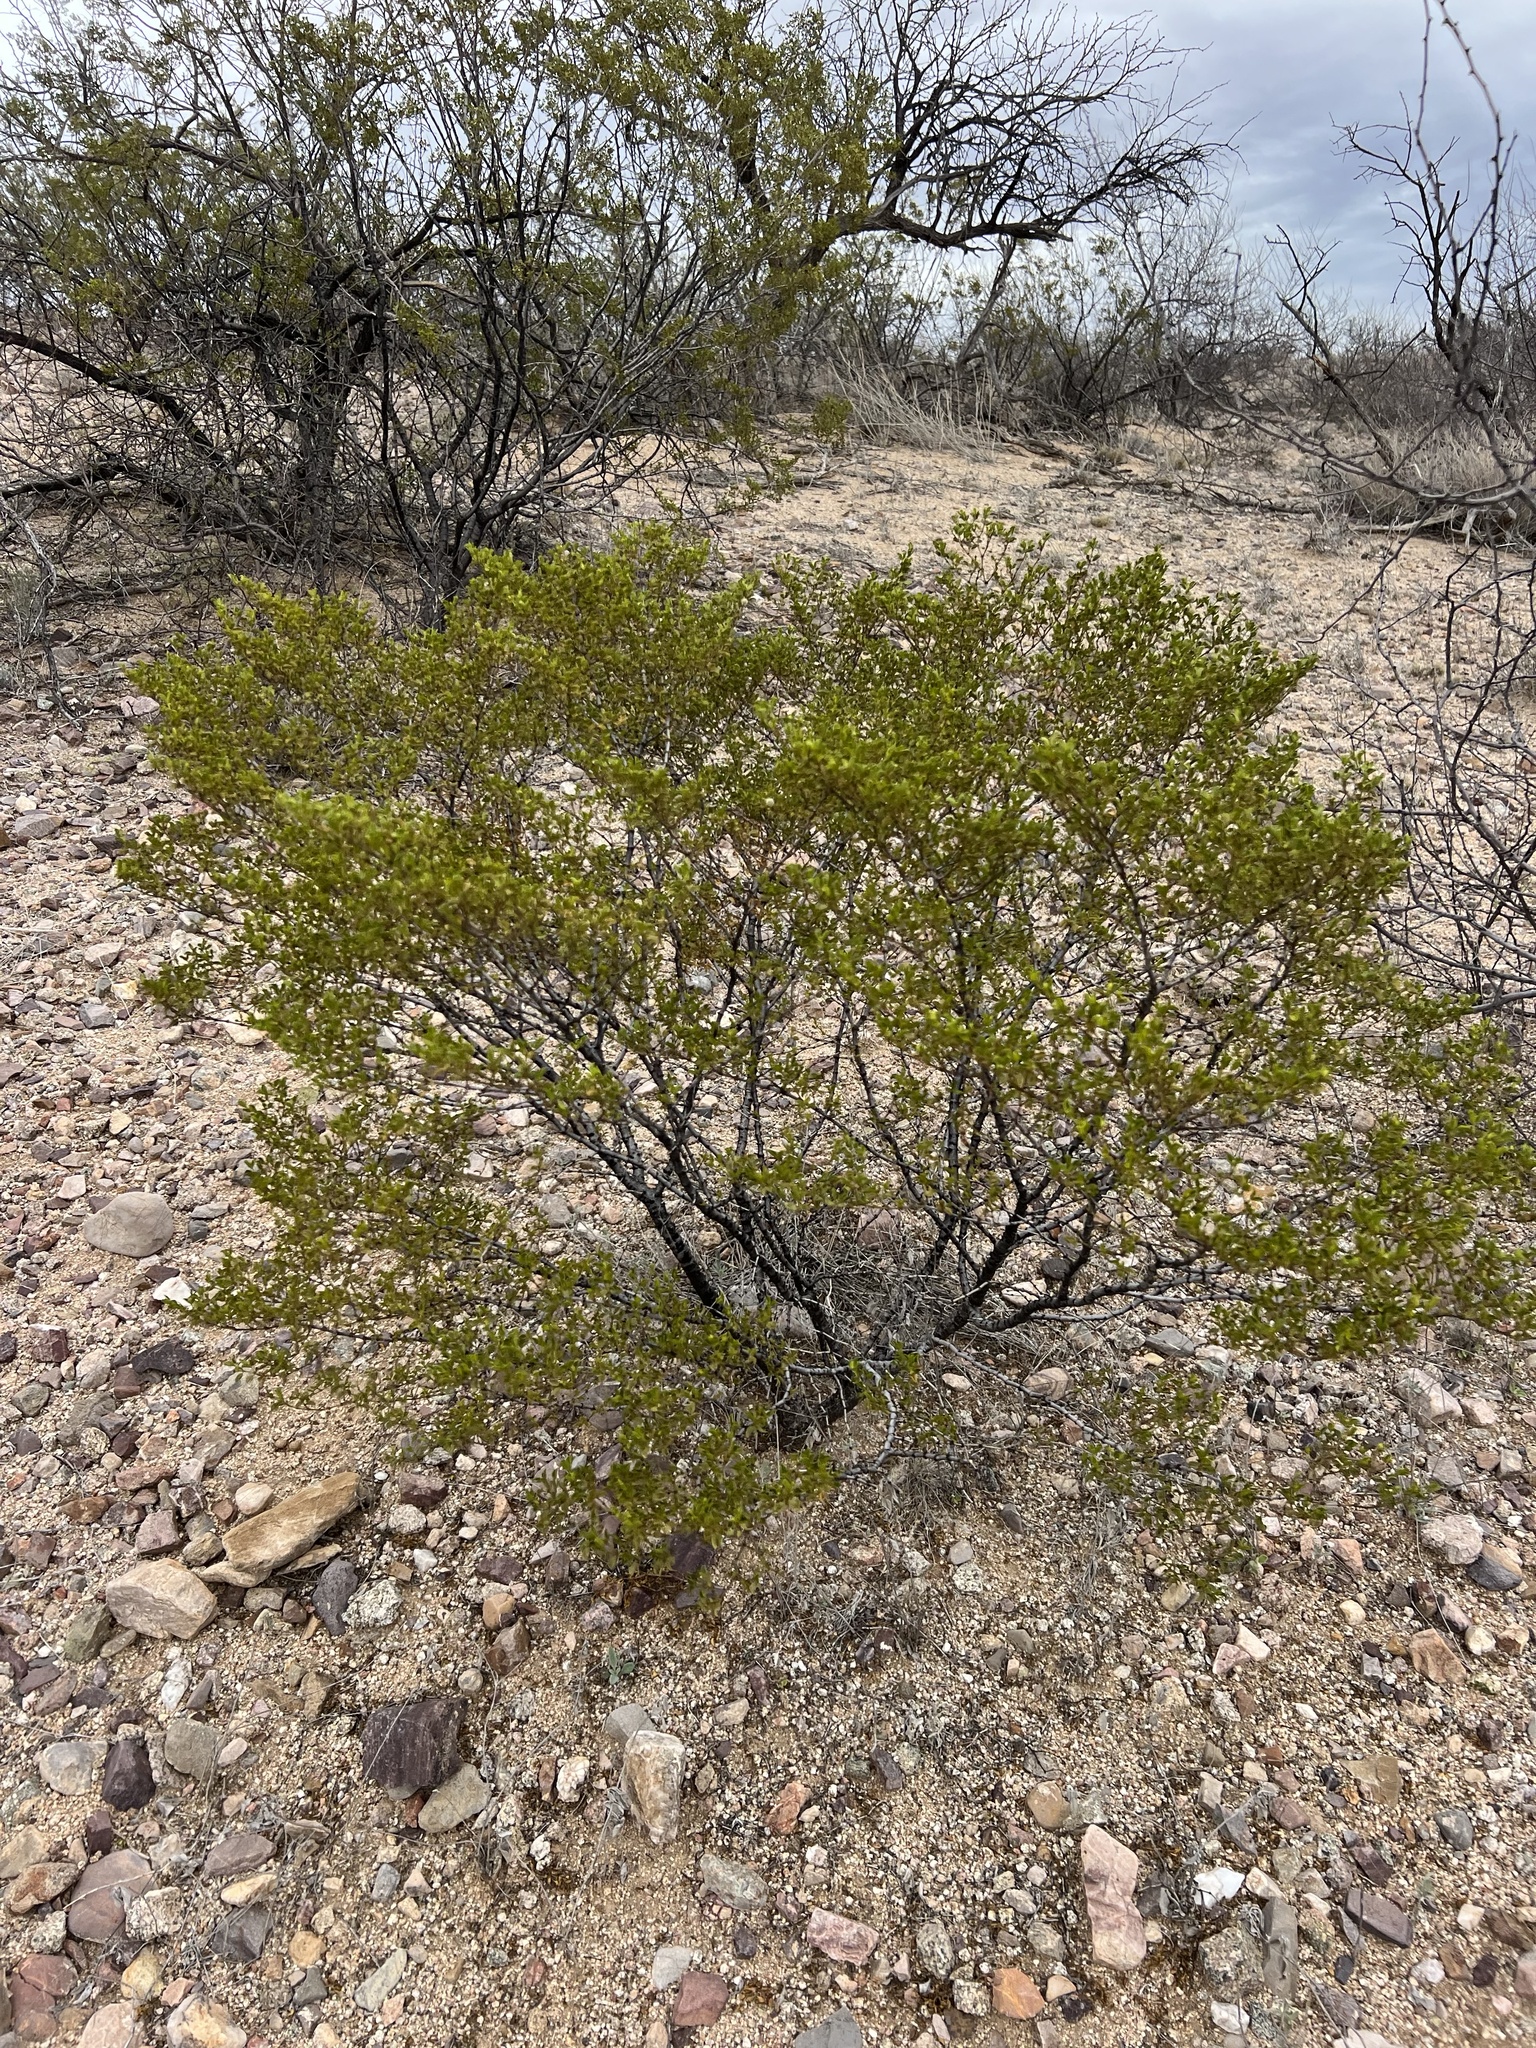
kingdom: Plantae
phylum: Tracheophyta
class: Magnoliopsida
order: Zygophyllales
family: Zygophyllaceae
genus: Larrea
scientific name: Larrea tridentata
